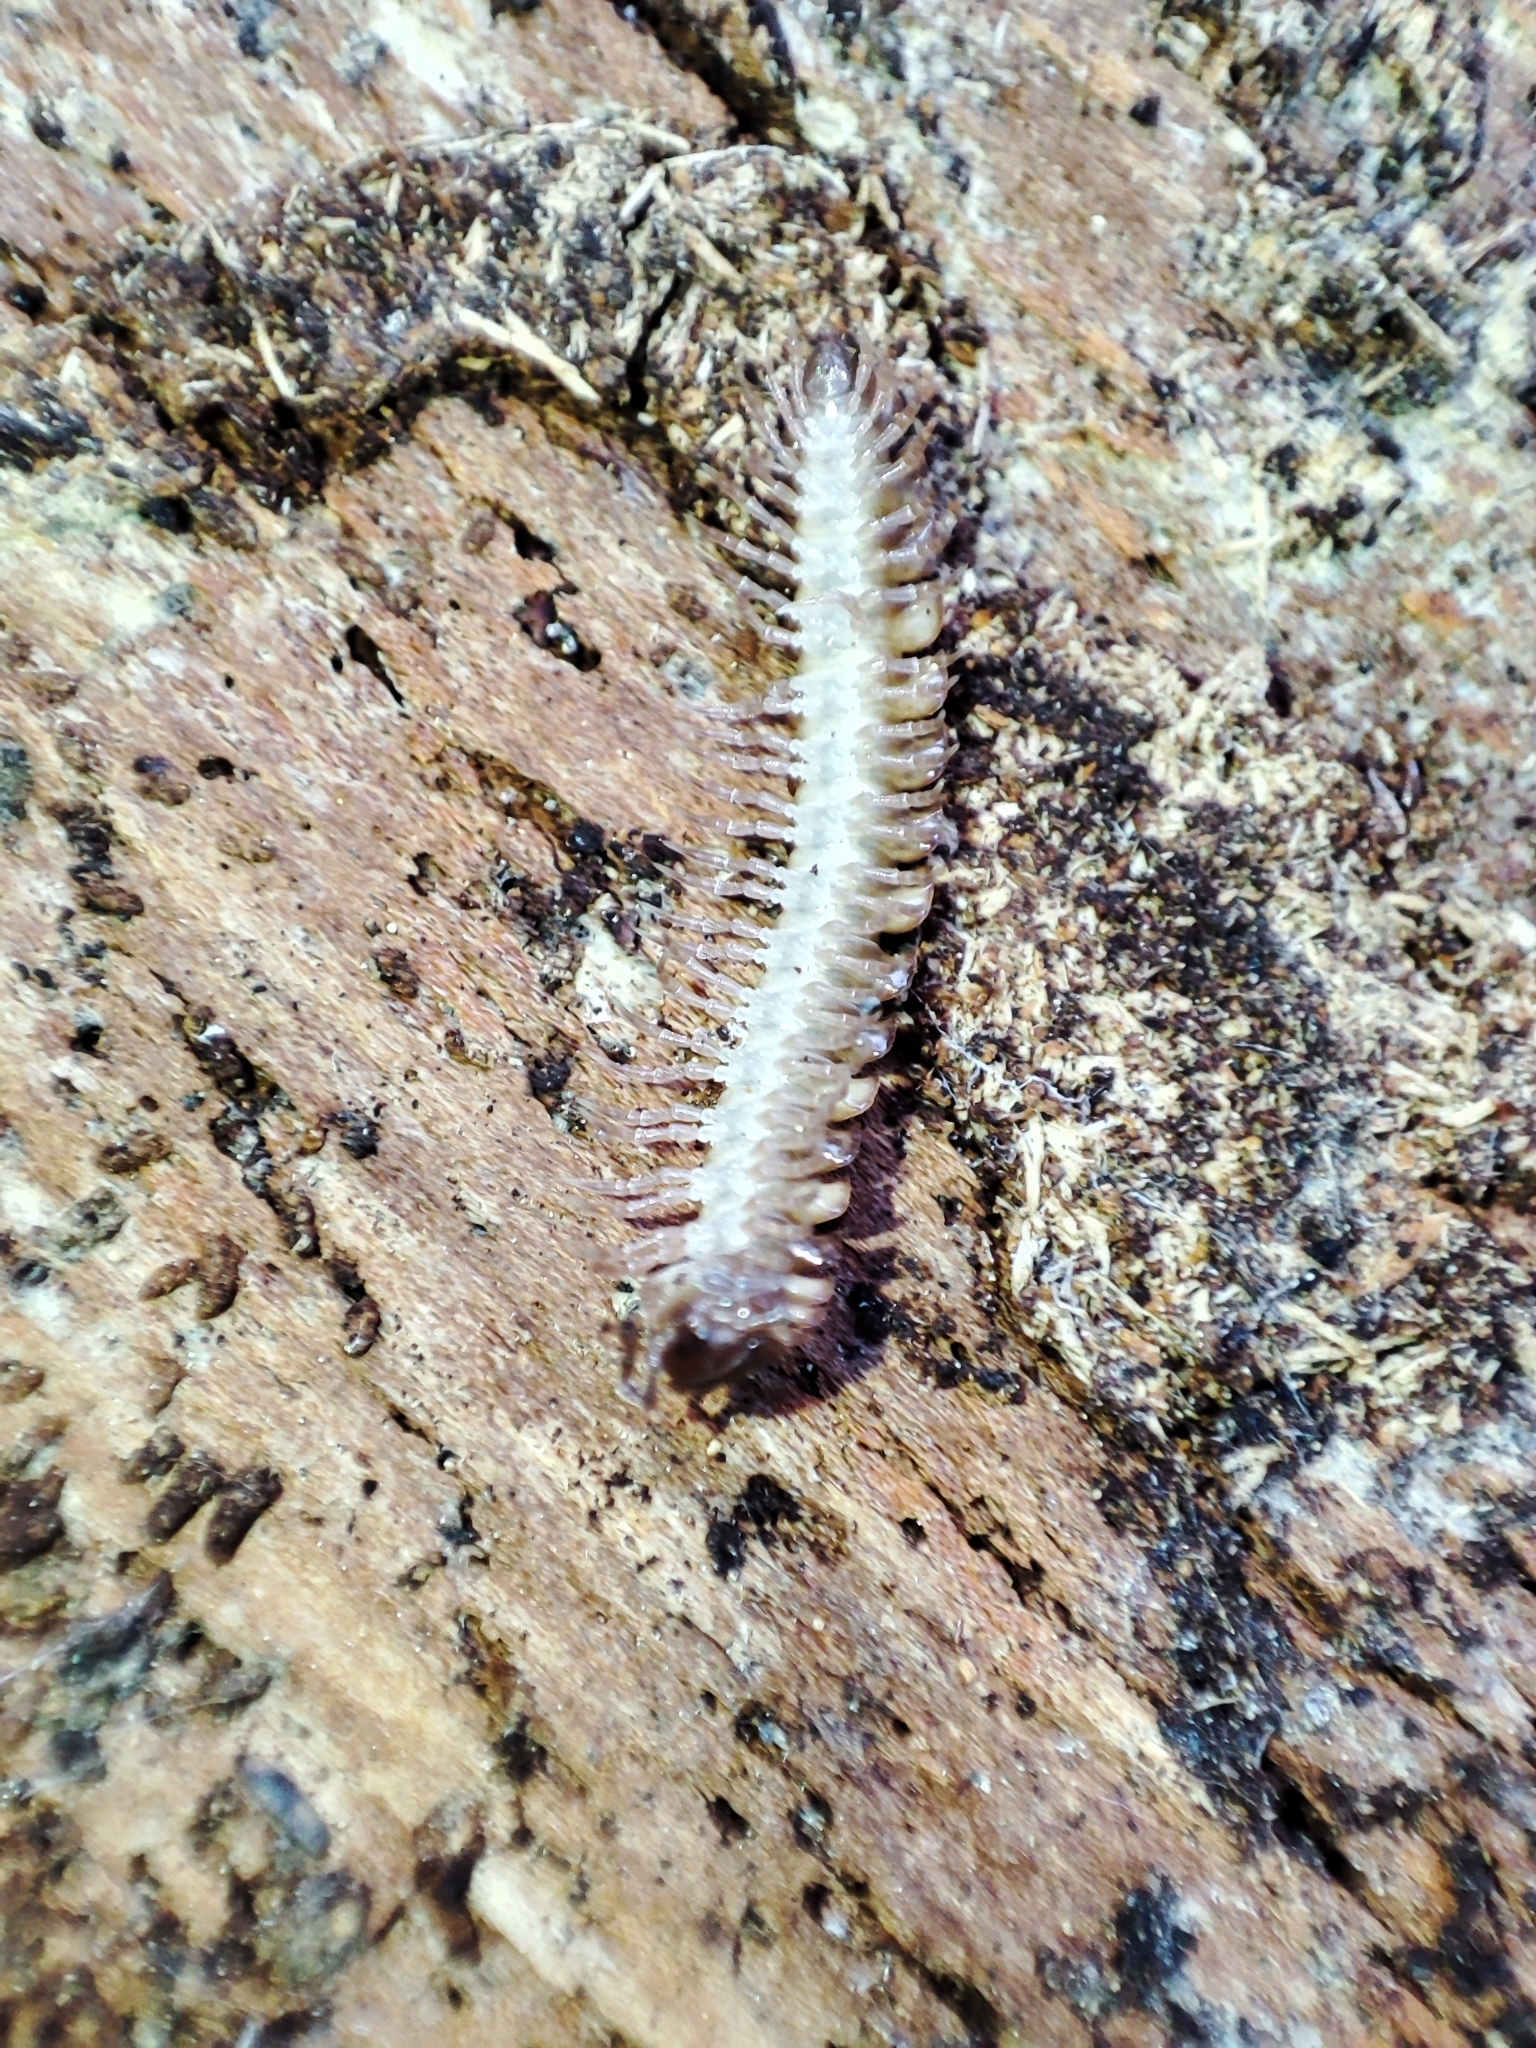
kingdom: Animalia
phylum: Arthropoda
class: Diplopoda
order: Polydesmida
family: Polydesmidae
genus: Polydesmus
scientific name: Polydesmus complanatus
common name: Flat-backed millipede
